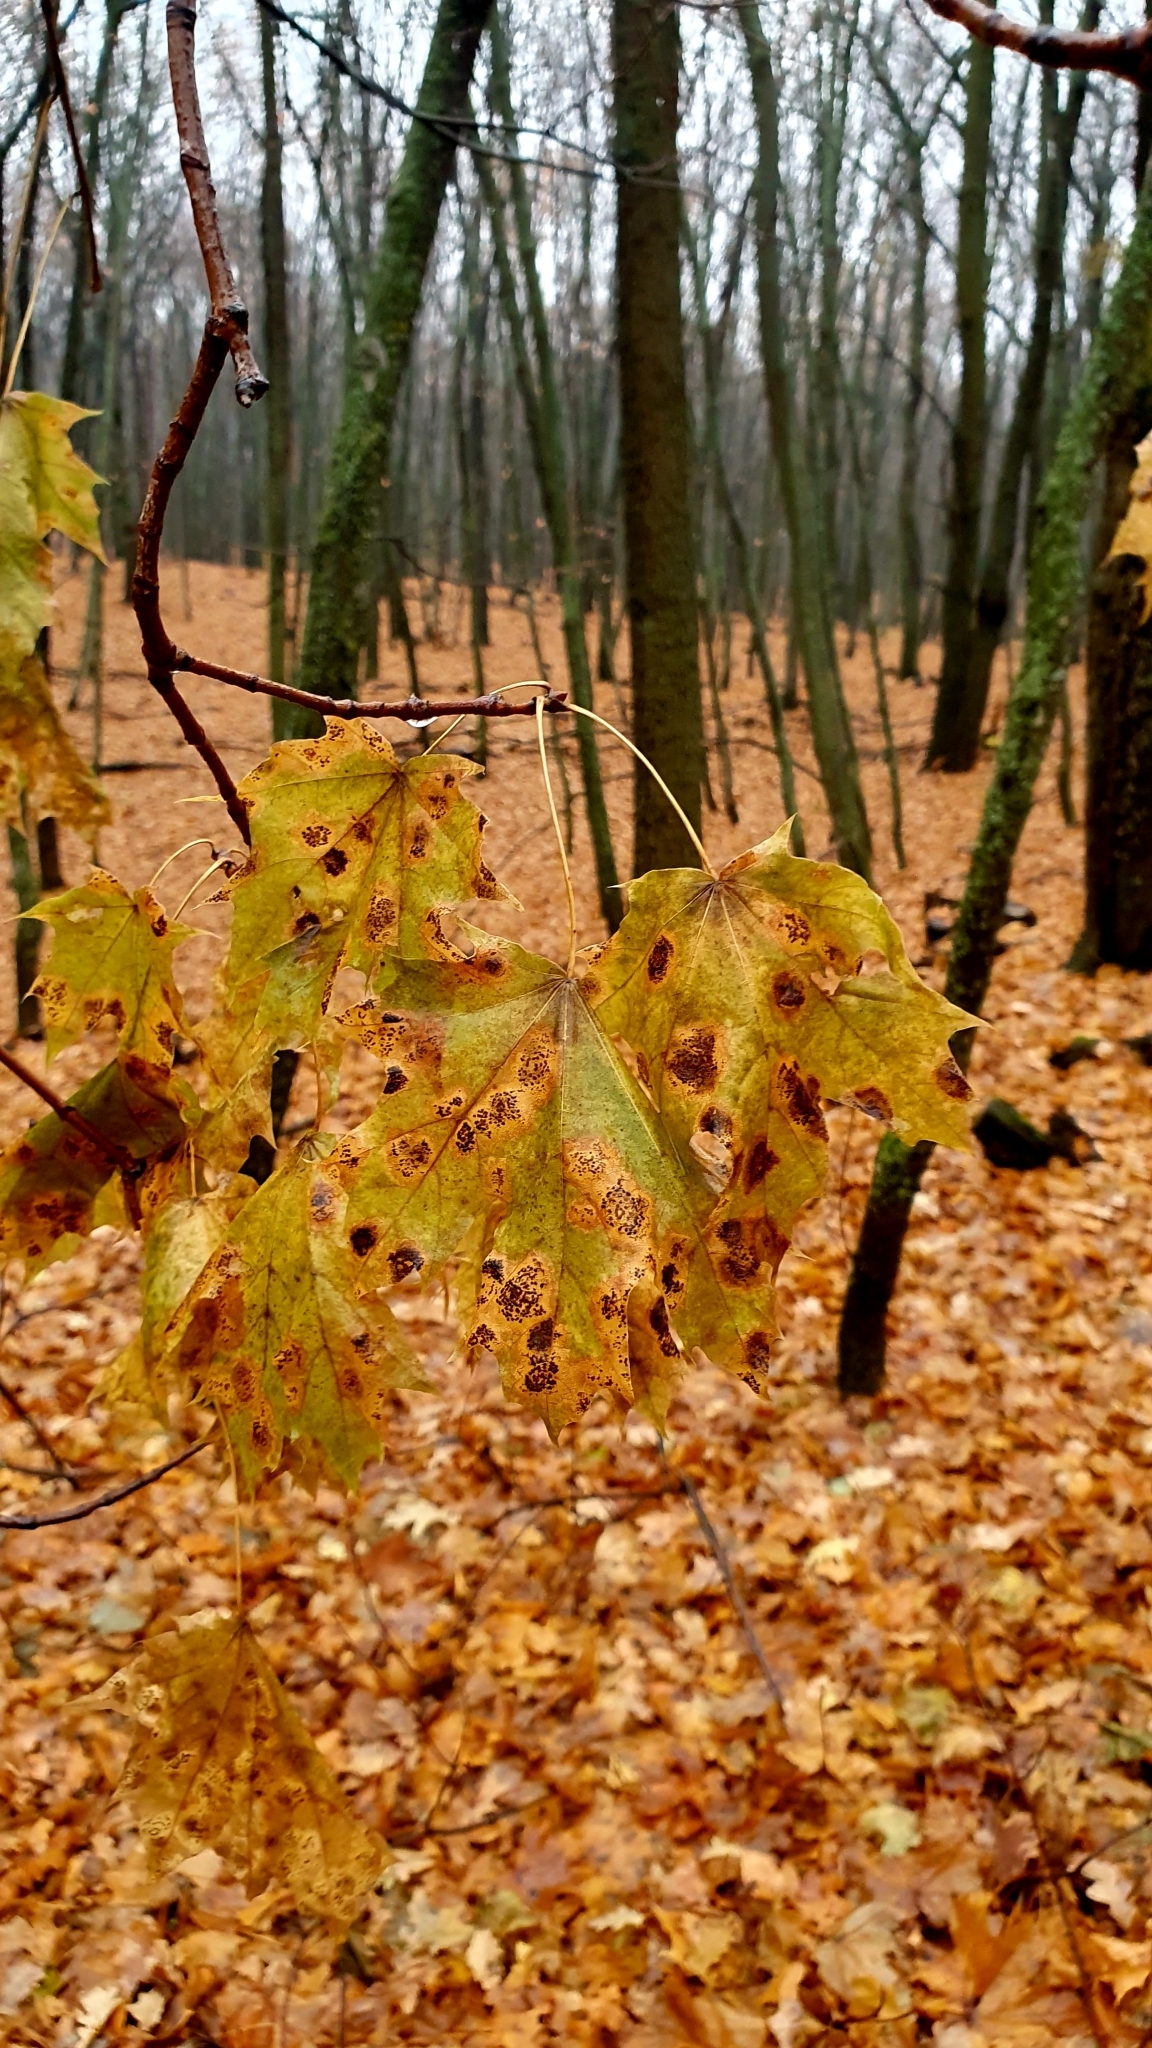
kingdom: Plantae
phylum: Tracheophyta
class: Magnoliopsida
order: Sapindales
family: Sapindaceae
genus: Acer
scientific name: Acer platanoides
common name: Norway maple
